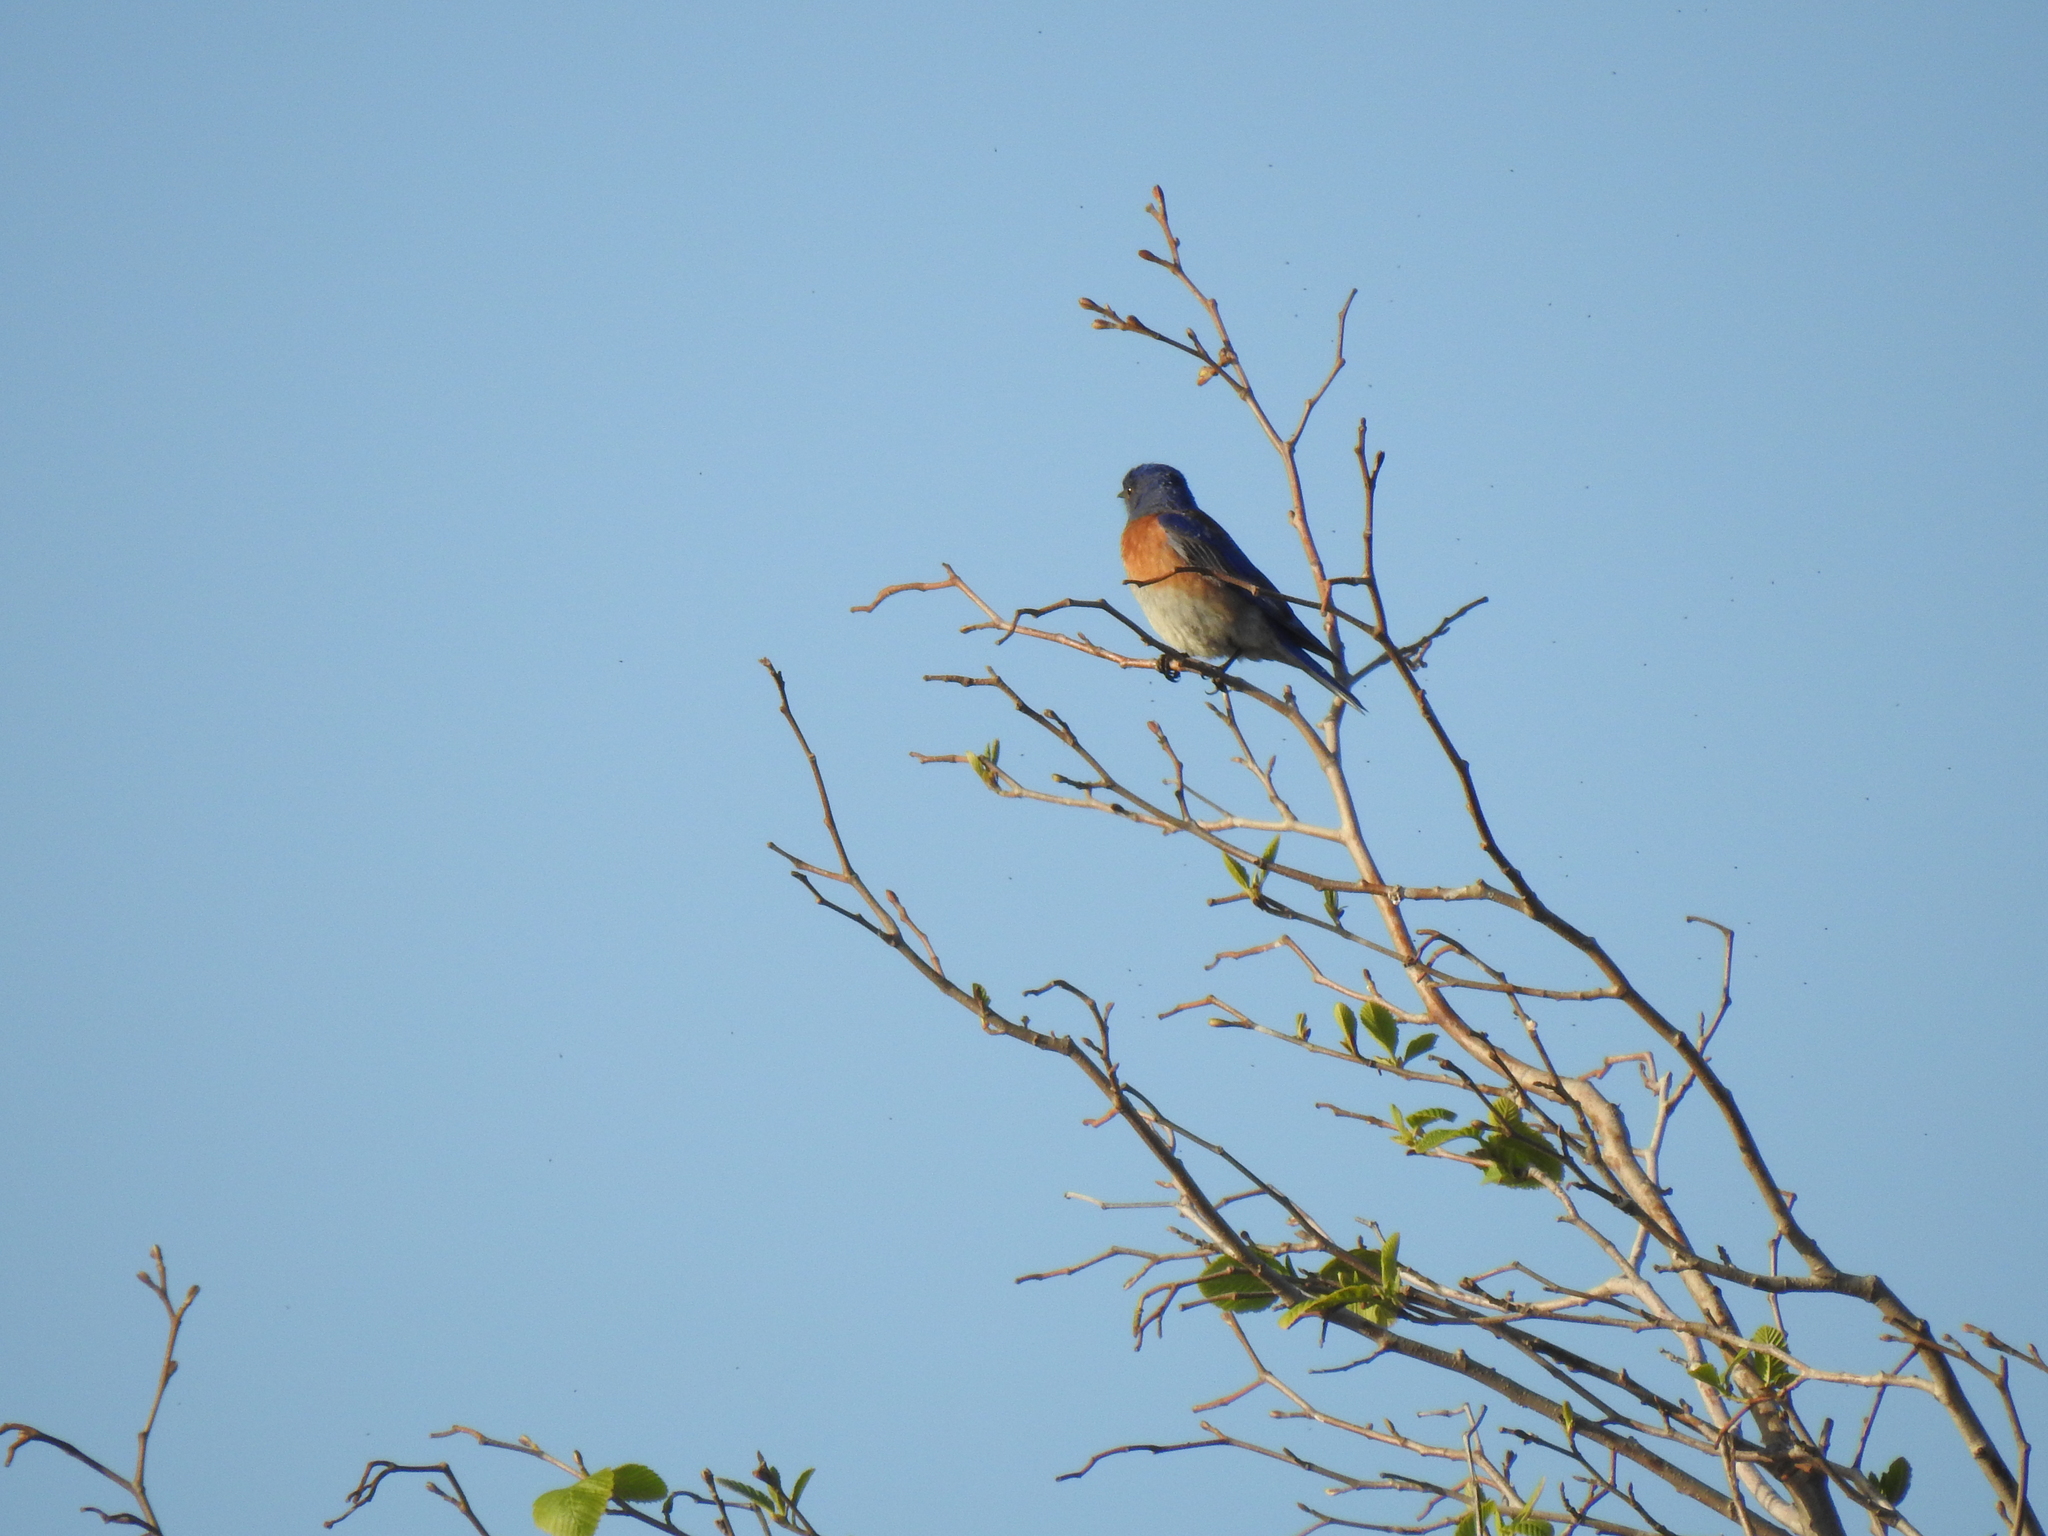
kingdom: Animalia
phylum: Chordata
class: Aves
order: Passeriformes
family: Turdidae
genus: Sialia
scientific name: Sialia mexicana
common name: Western bluebird
